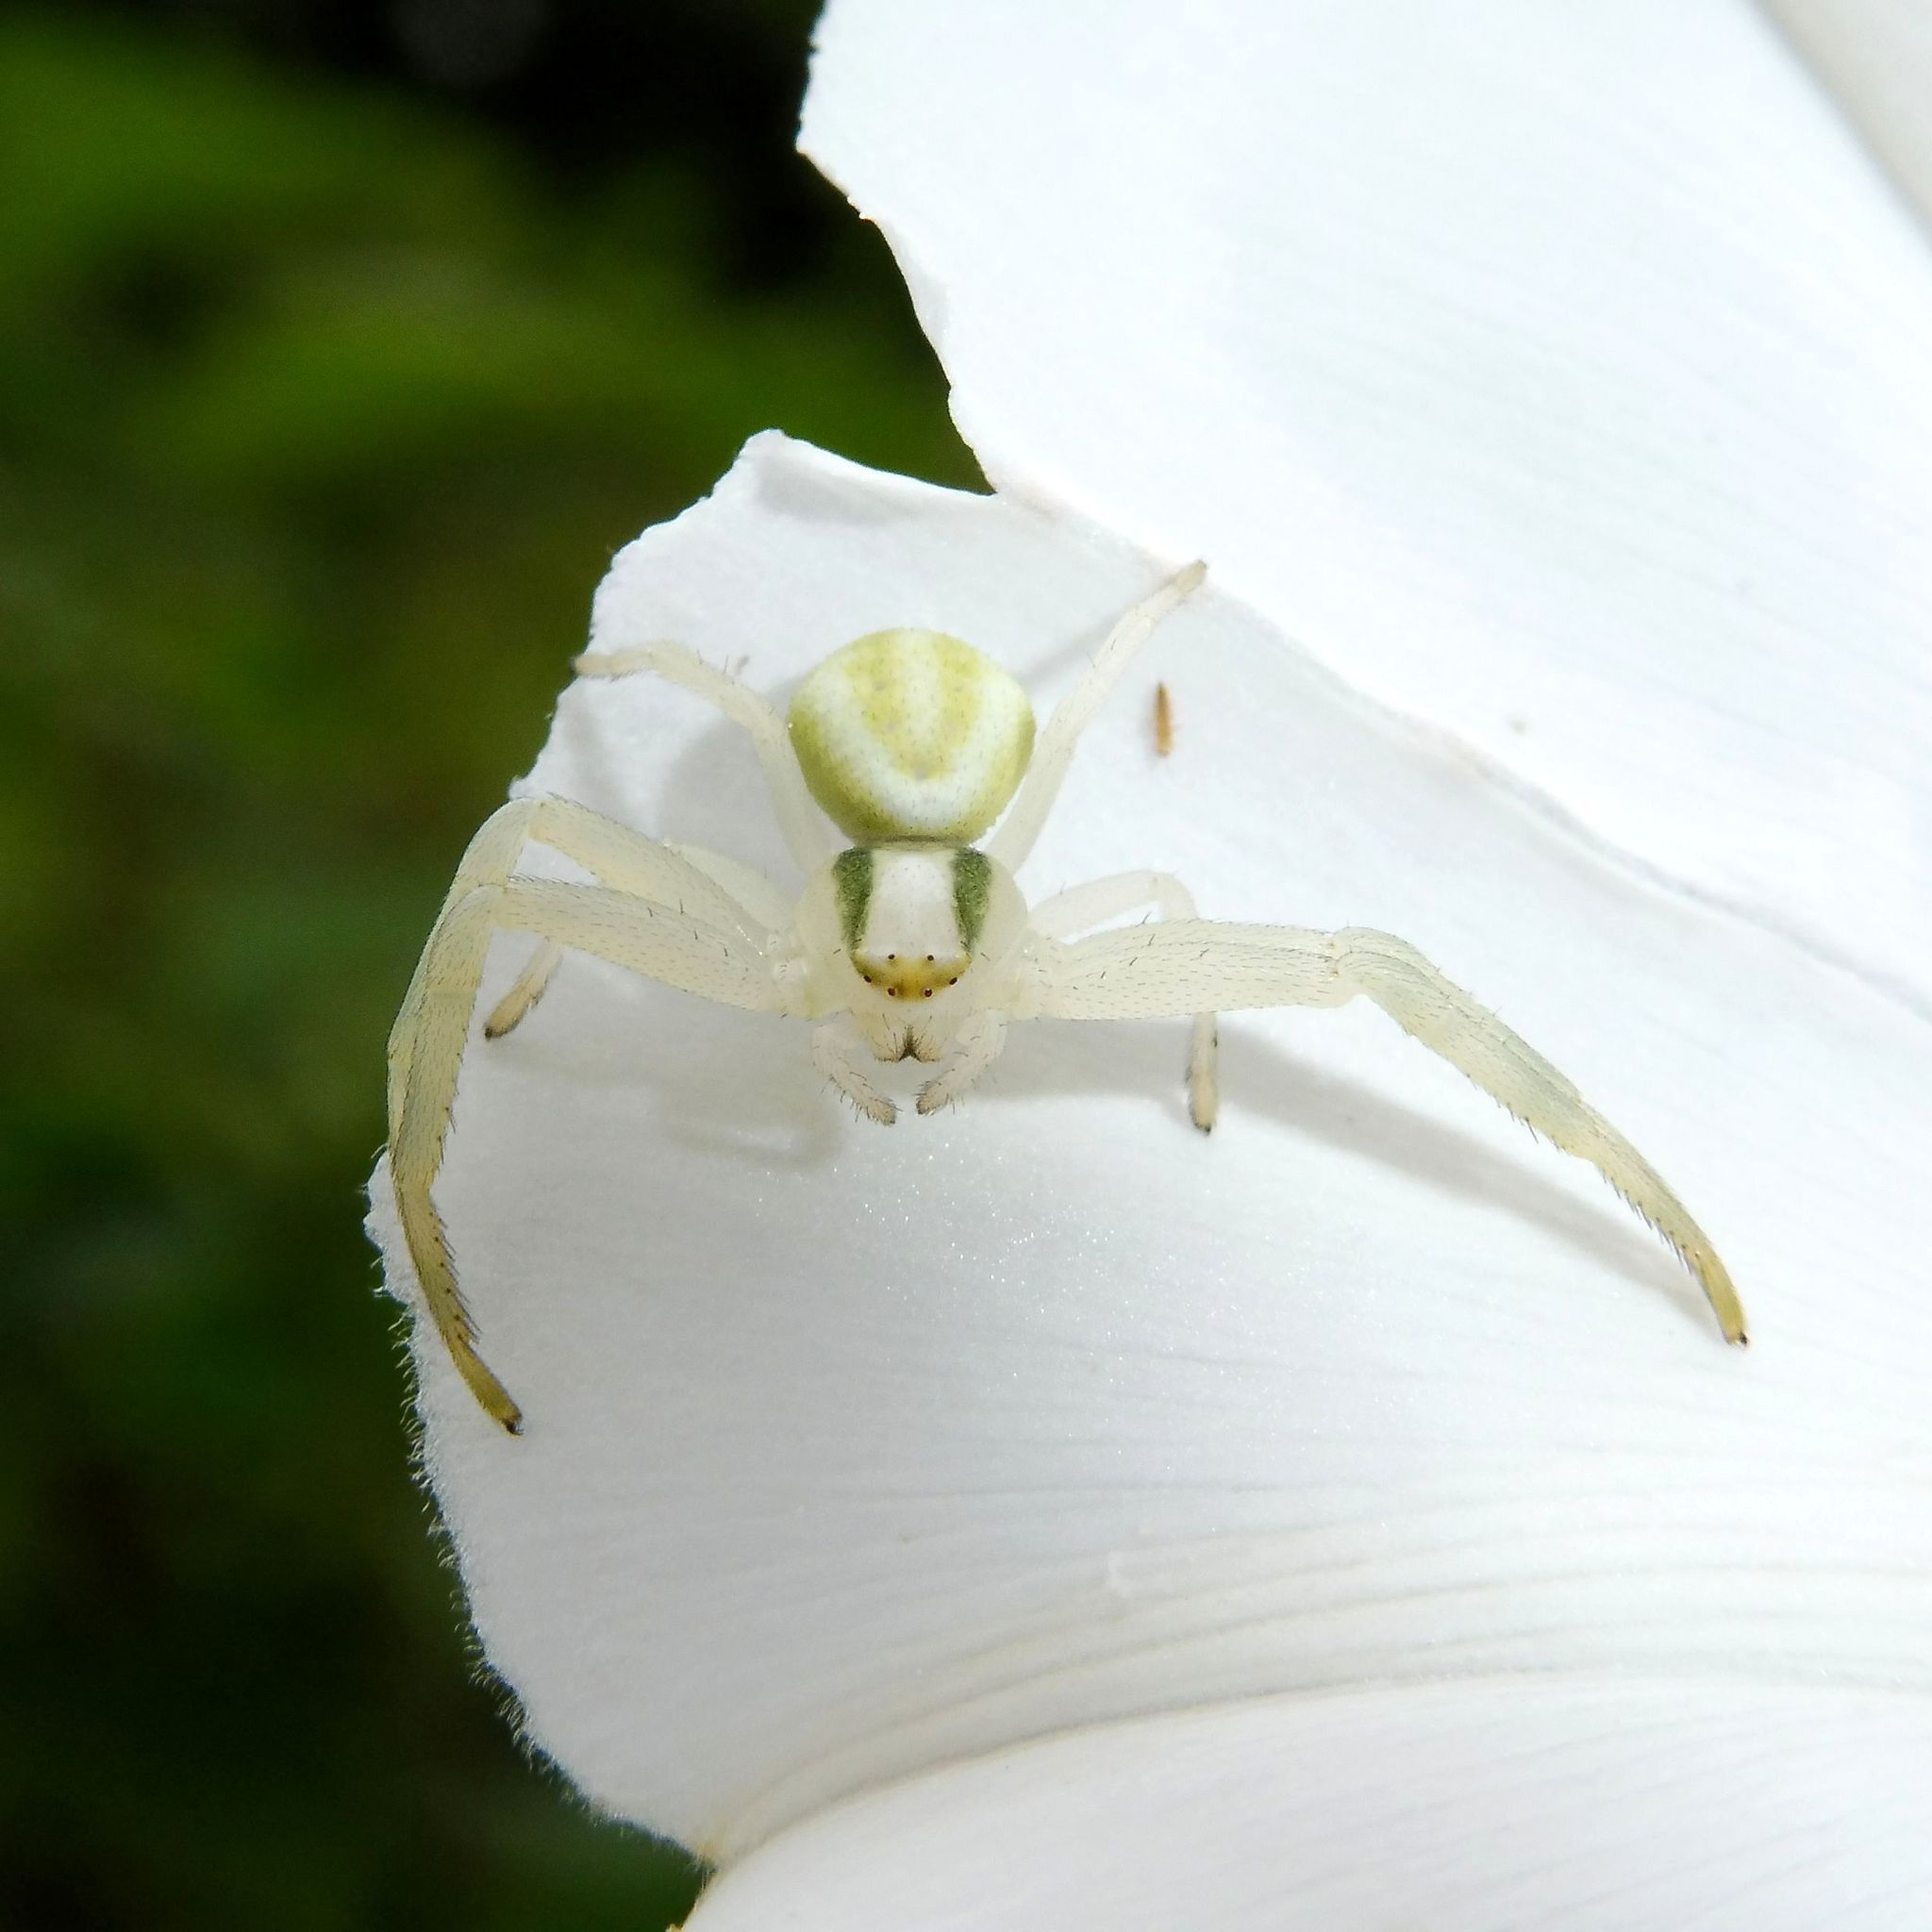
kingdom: Animalia
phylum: Arthropoda
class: Arachnida
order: Araneae
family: Thomisidae
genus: Misumena
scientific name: Misumena vatia
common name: Goldenrod crab spider
